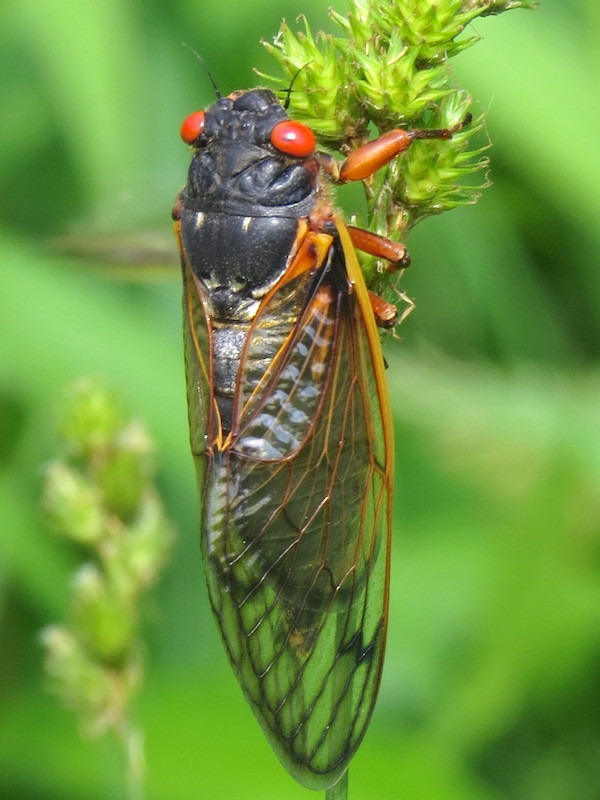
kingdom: Animalia
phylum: Arthropoda
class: Insecta
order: Hemiptera
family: Cicadidae
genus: Magicicada
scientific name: Magicicada septendecim
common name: Periodical cicada
